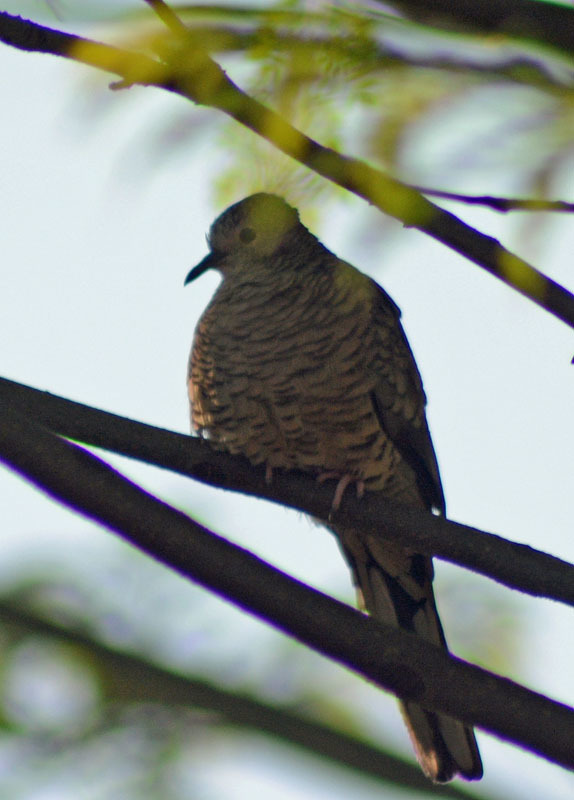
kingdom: Animalia
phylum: Chordata
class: Aves
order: Columbiformes
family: Columbidae
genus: Columbina
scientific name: Columbina inca
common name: Inca dove
